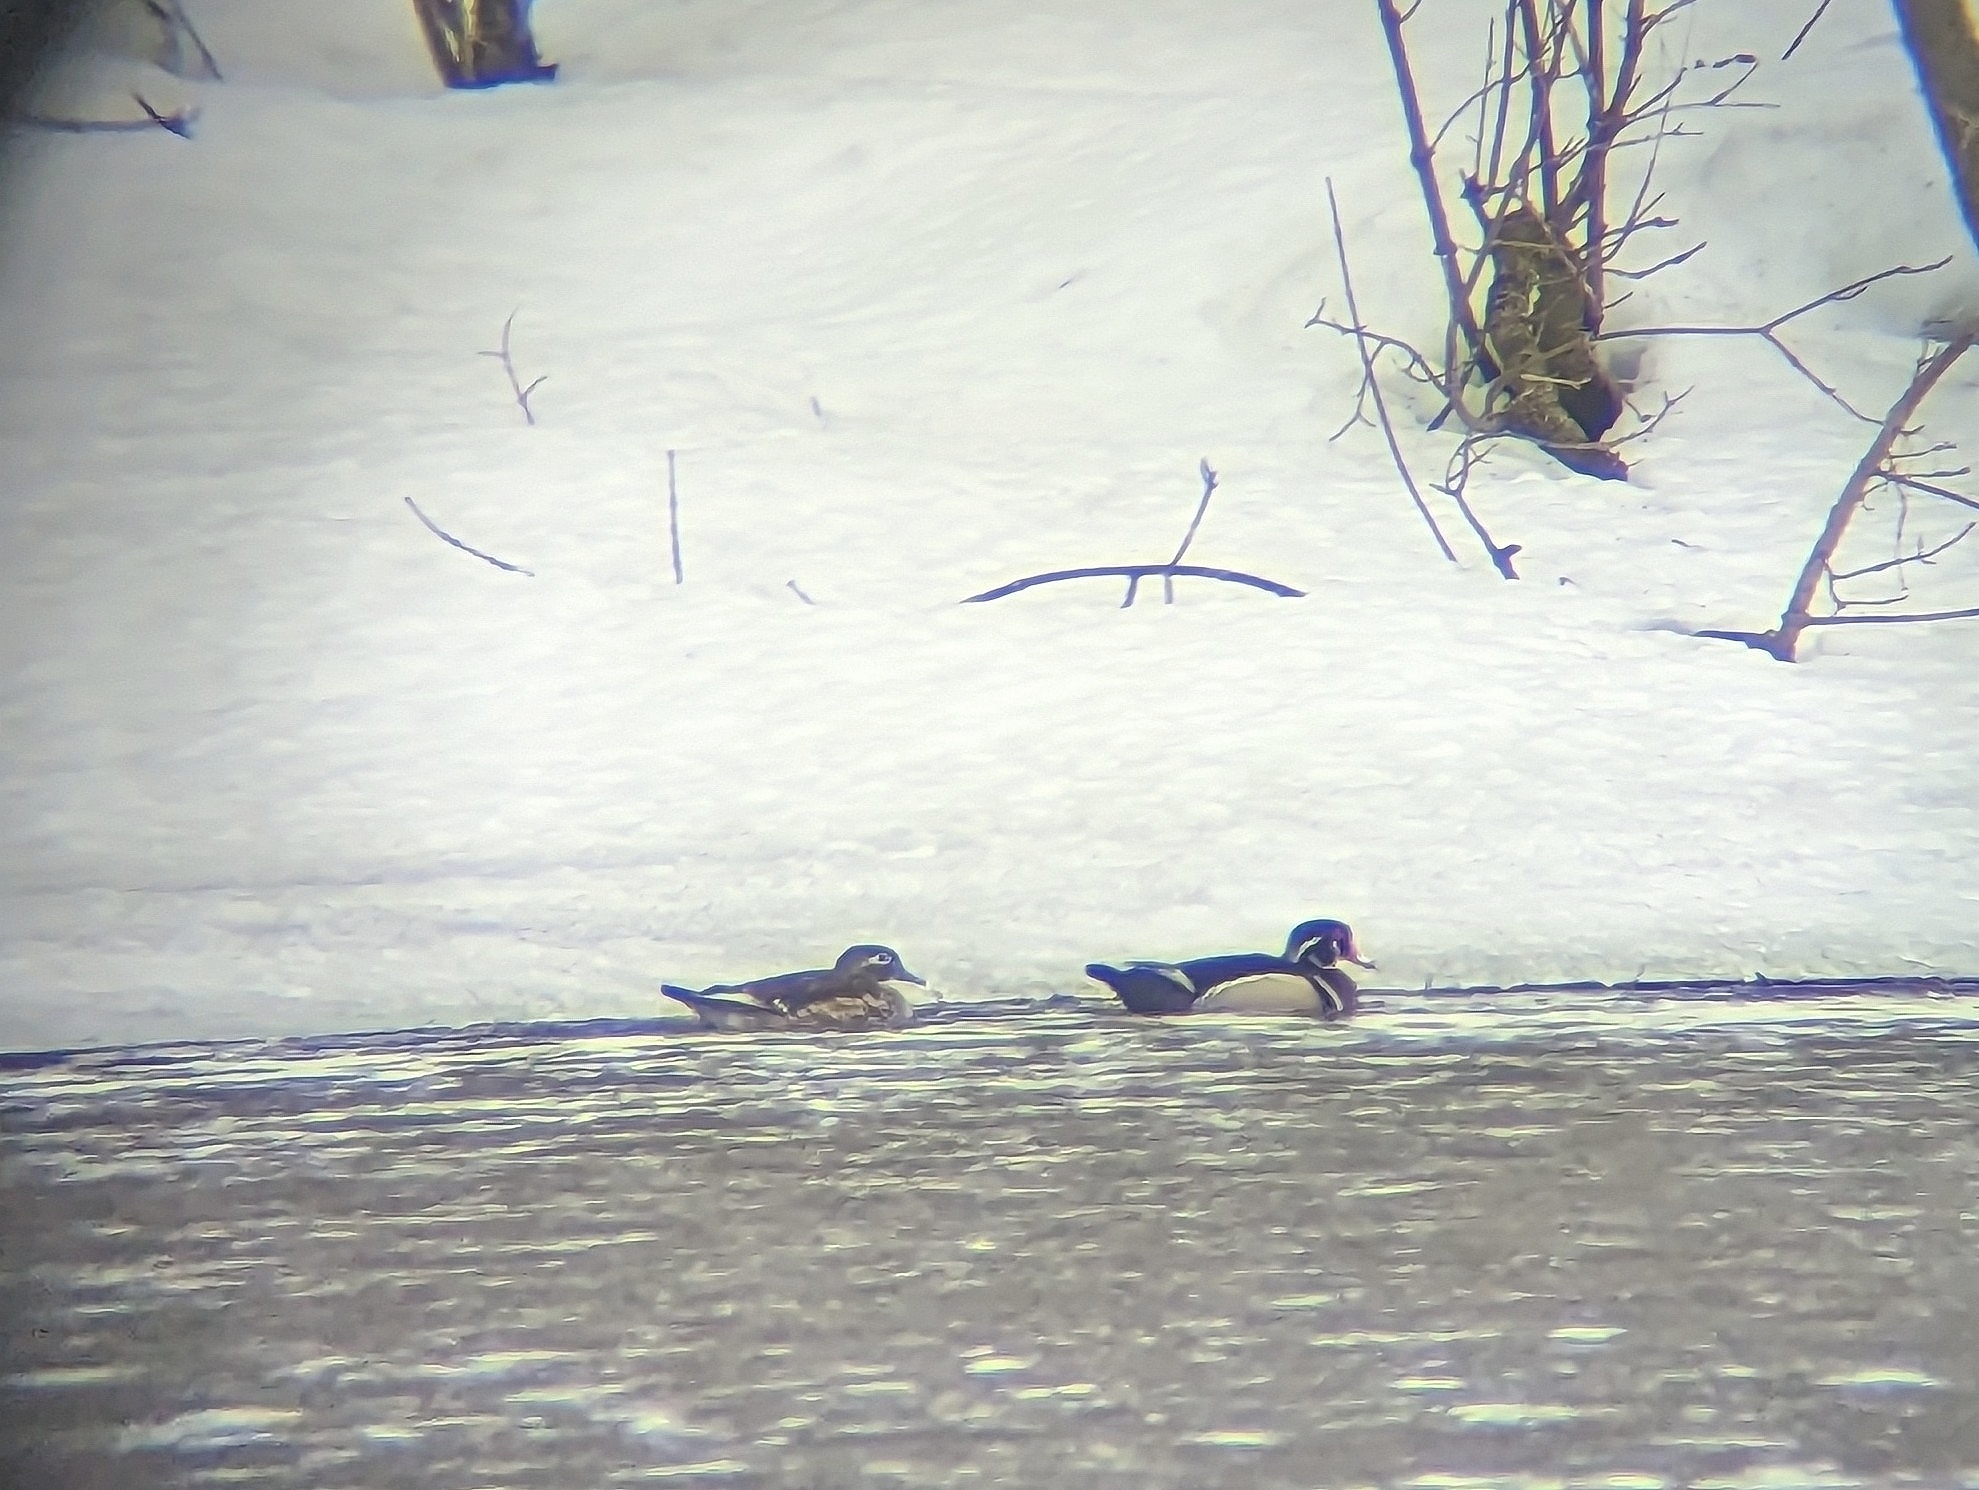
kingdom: Animalia
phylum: Chordata
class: Aves
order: Anseriformes
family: Anatidae
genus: Aix
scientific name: Aix sponsa
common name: Wood duck
